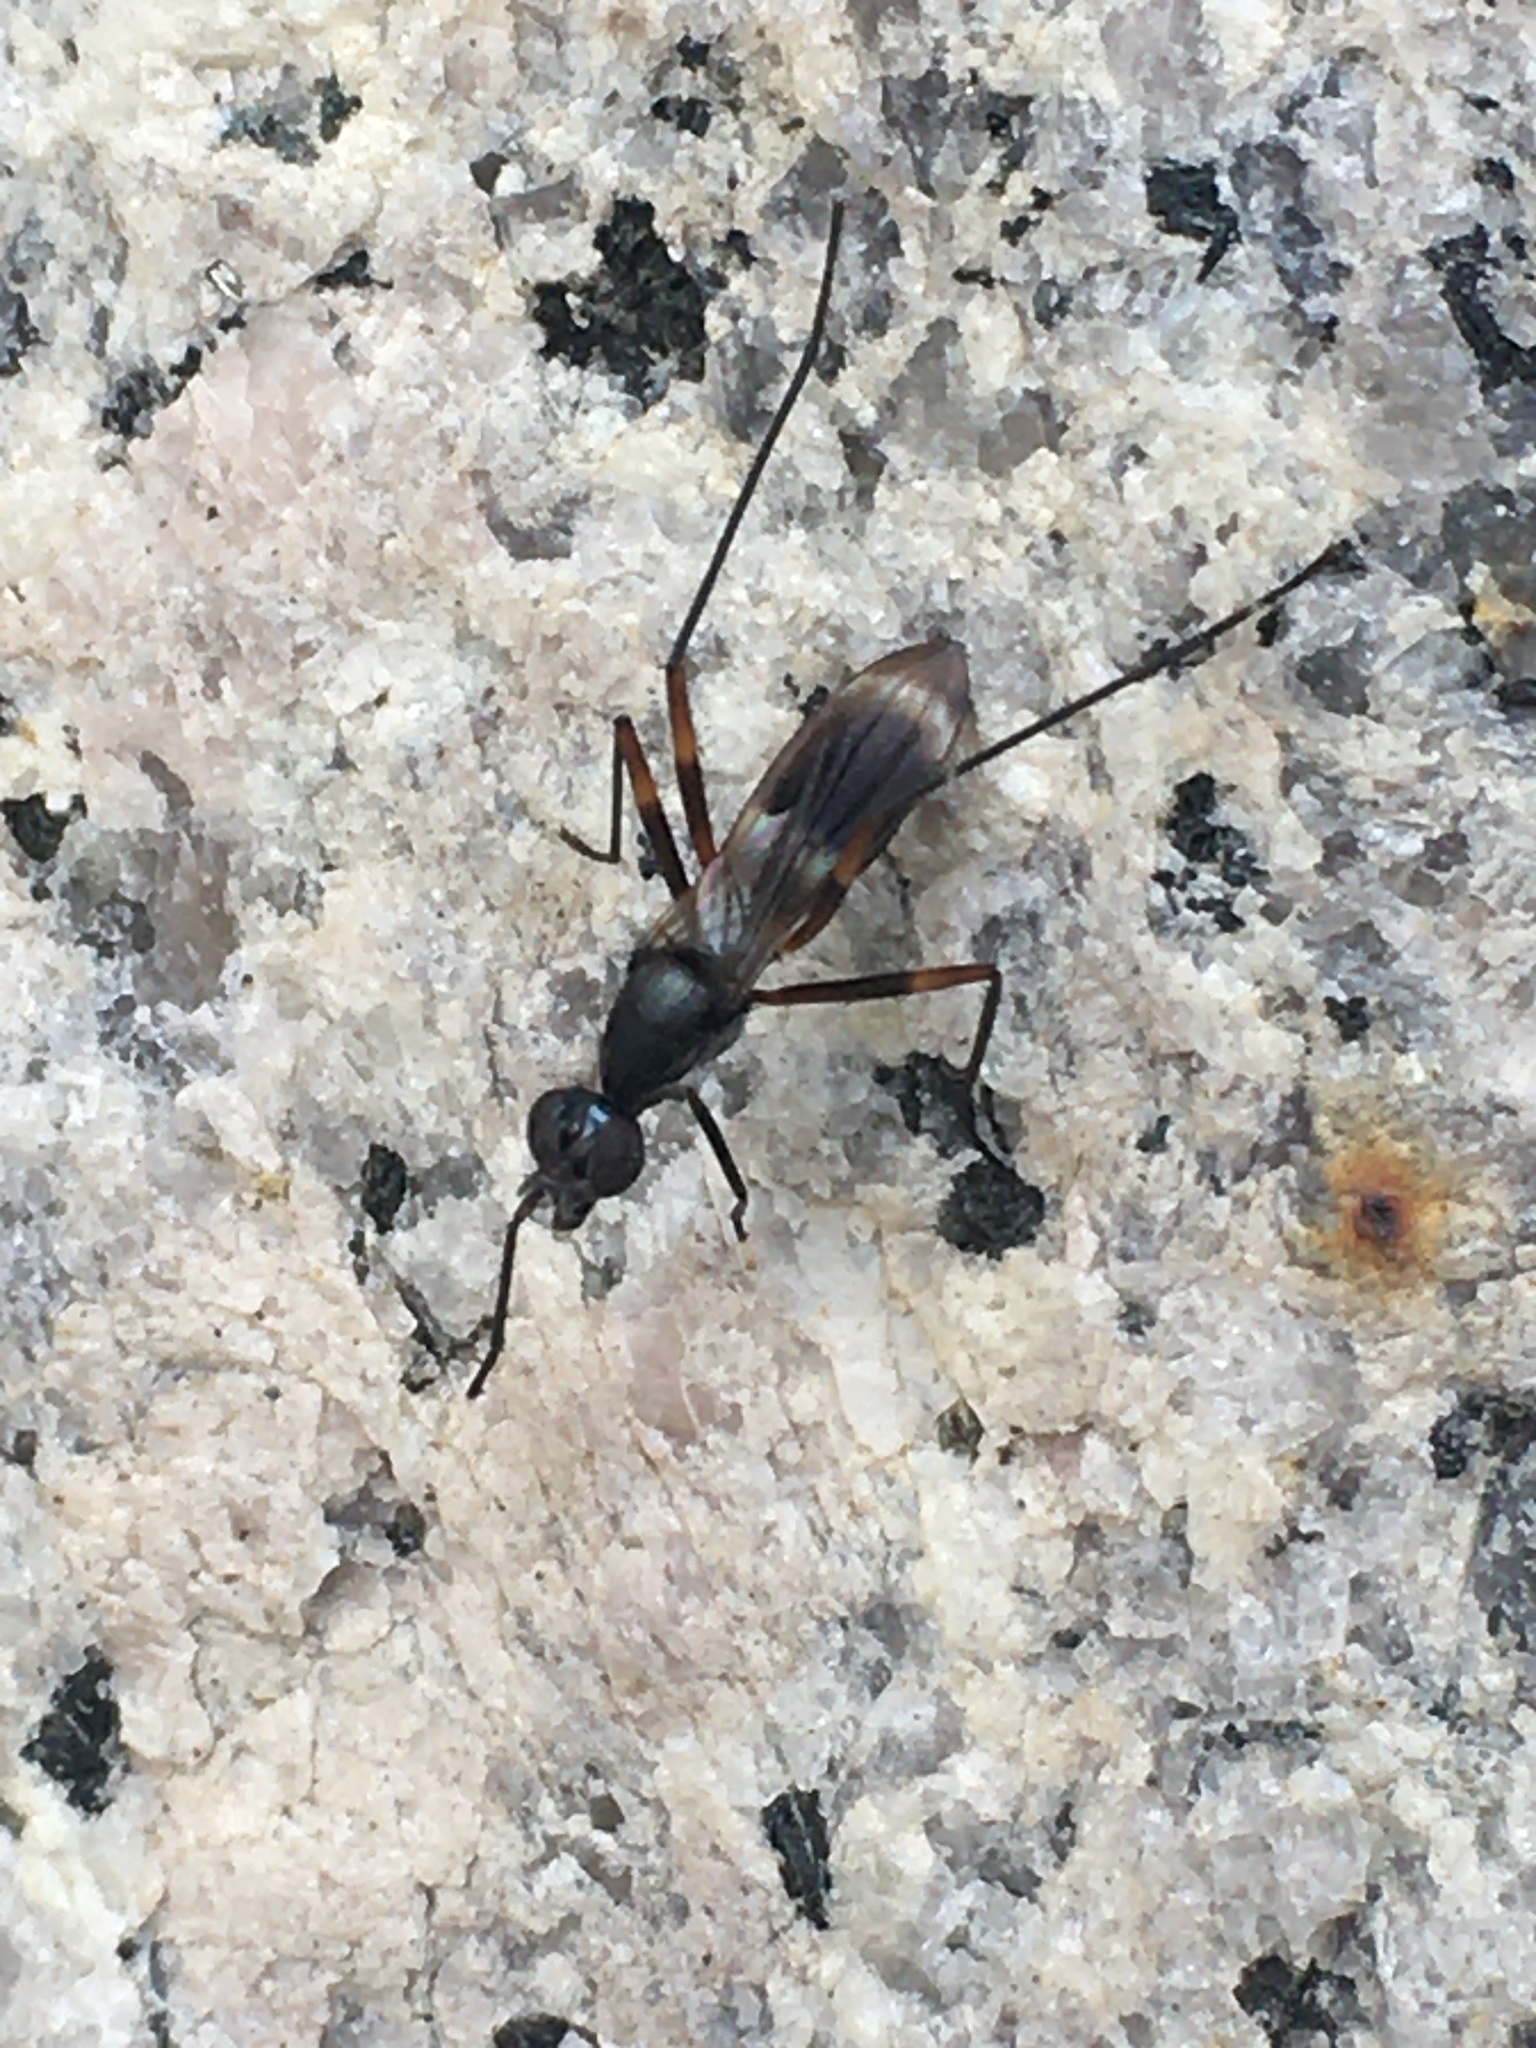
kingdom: Animalia
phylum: Arthropoda
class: Insecta
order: Diptera
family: Micropezidae
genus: Taeniaptera
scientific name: Taeniaptera trivittata
